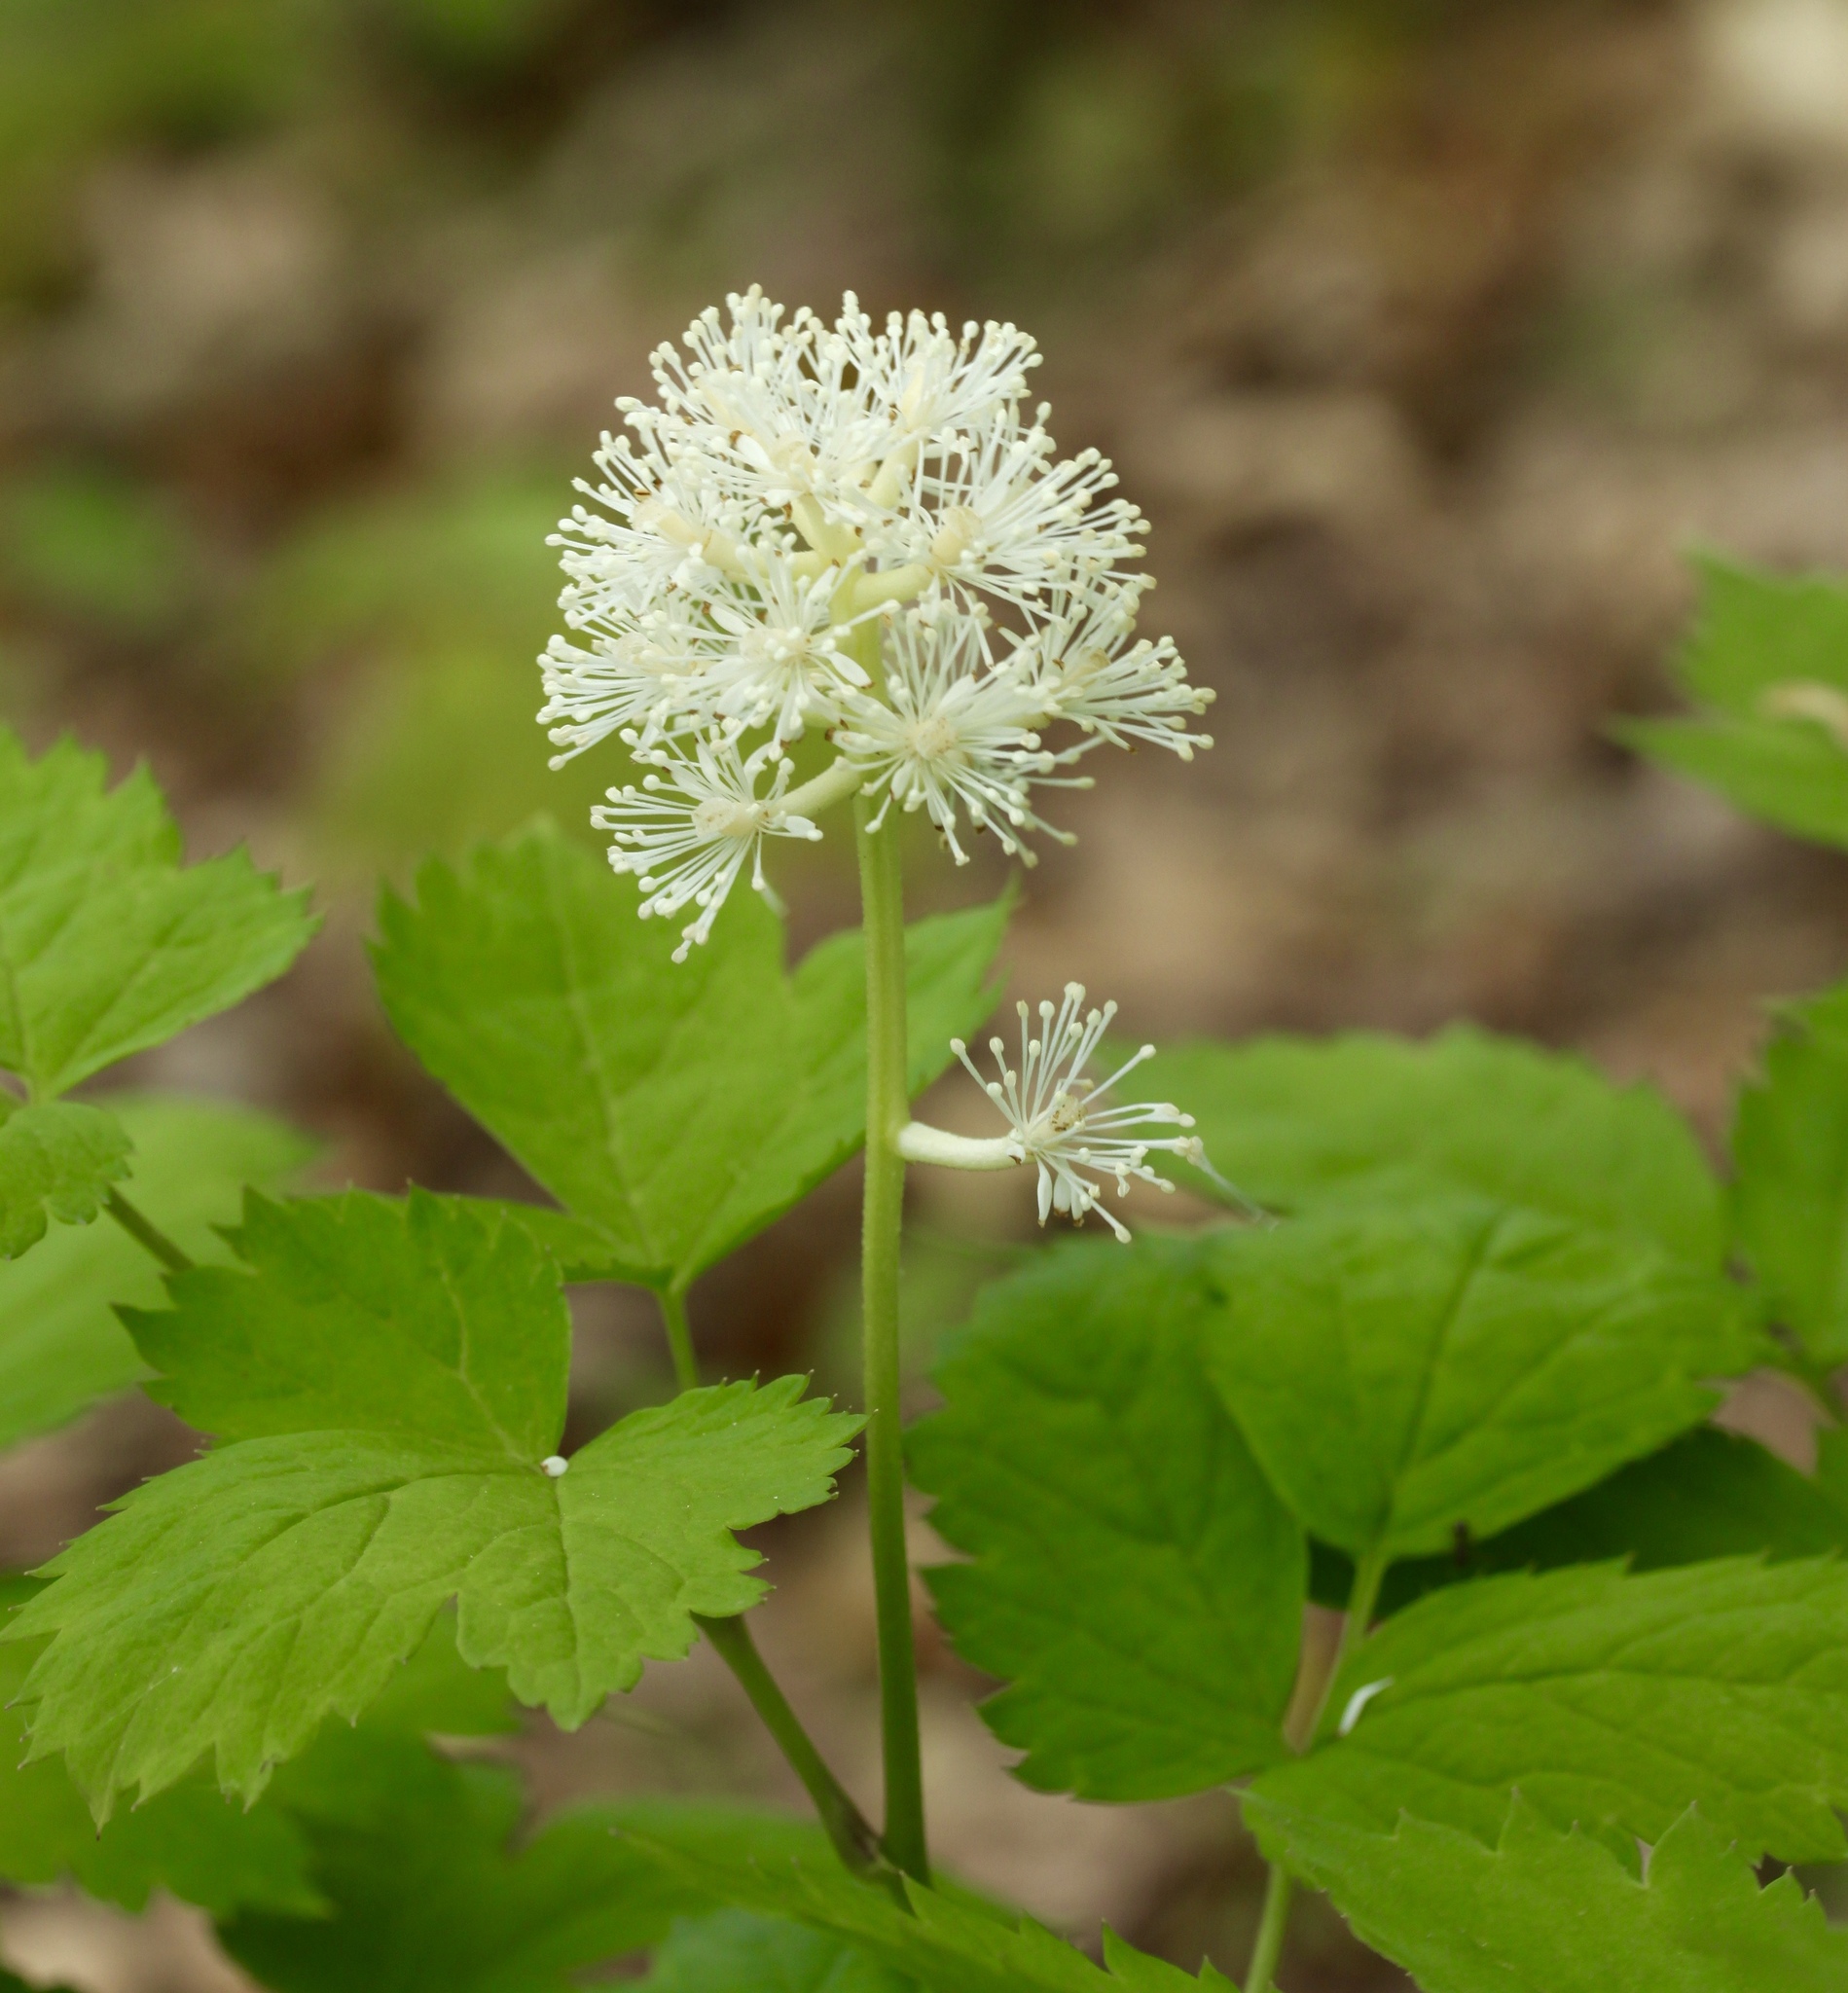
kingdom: Plantae
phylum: Tracheophyta
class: Magnoliopsida
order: Ranunculales
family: Ranunculaceae
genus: Actaea
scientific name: Actaea pachypoda
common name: Doll's-eyes
